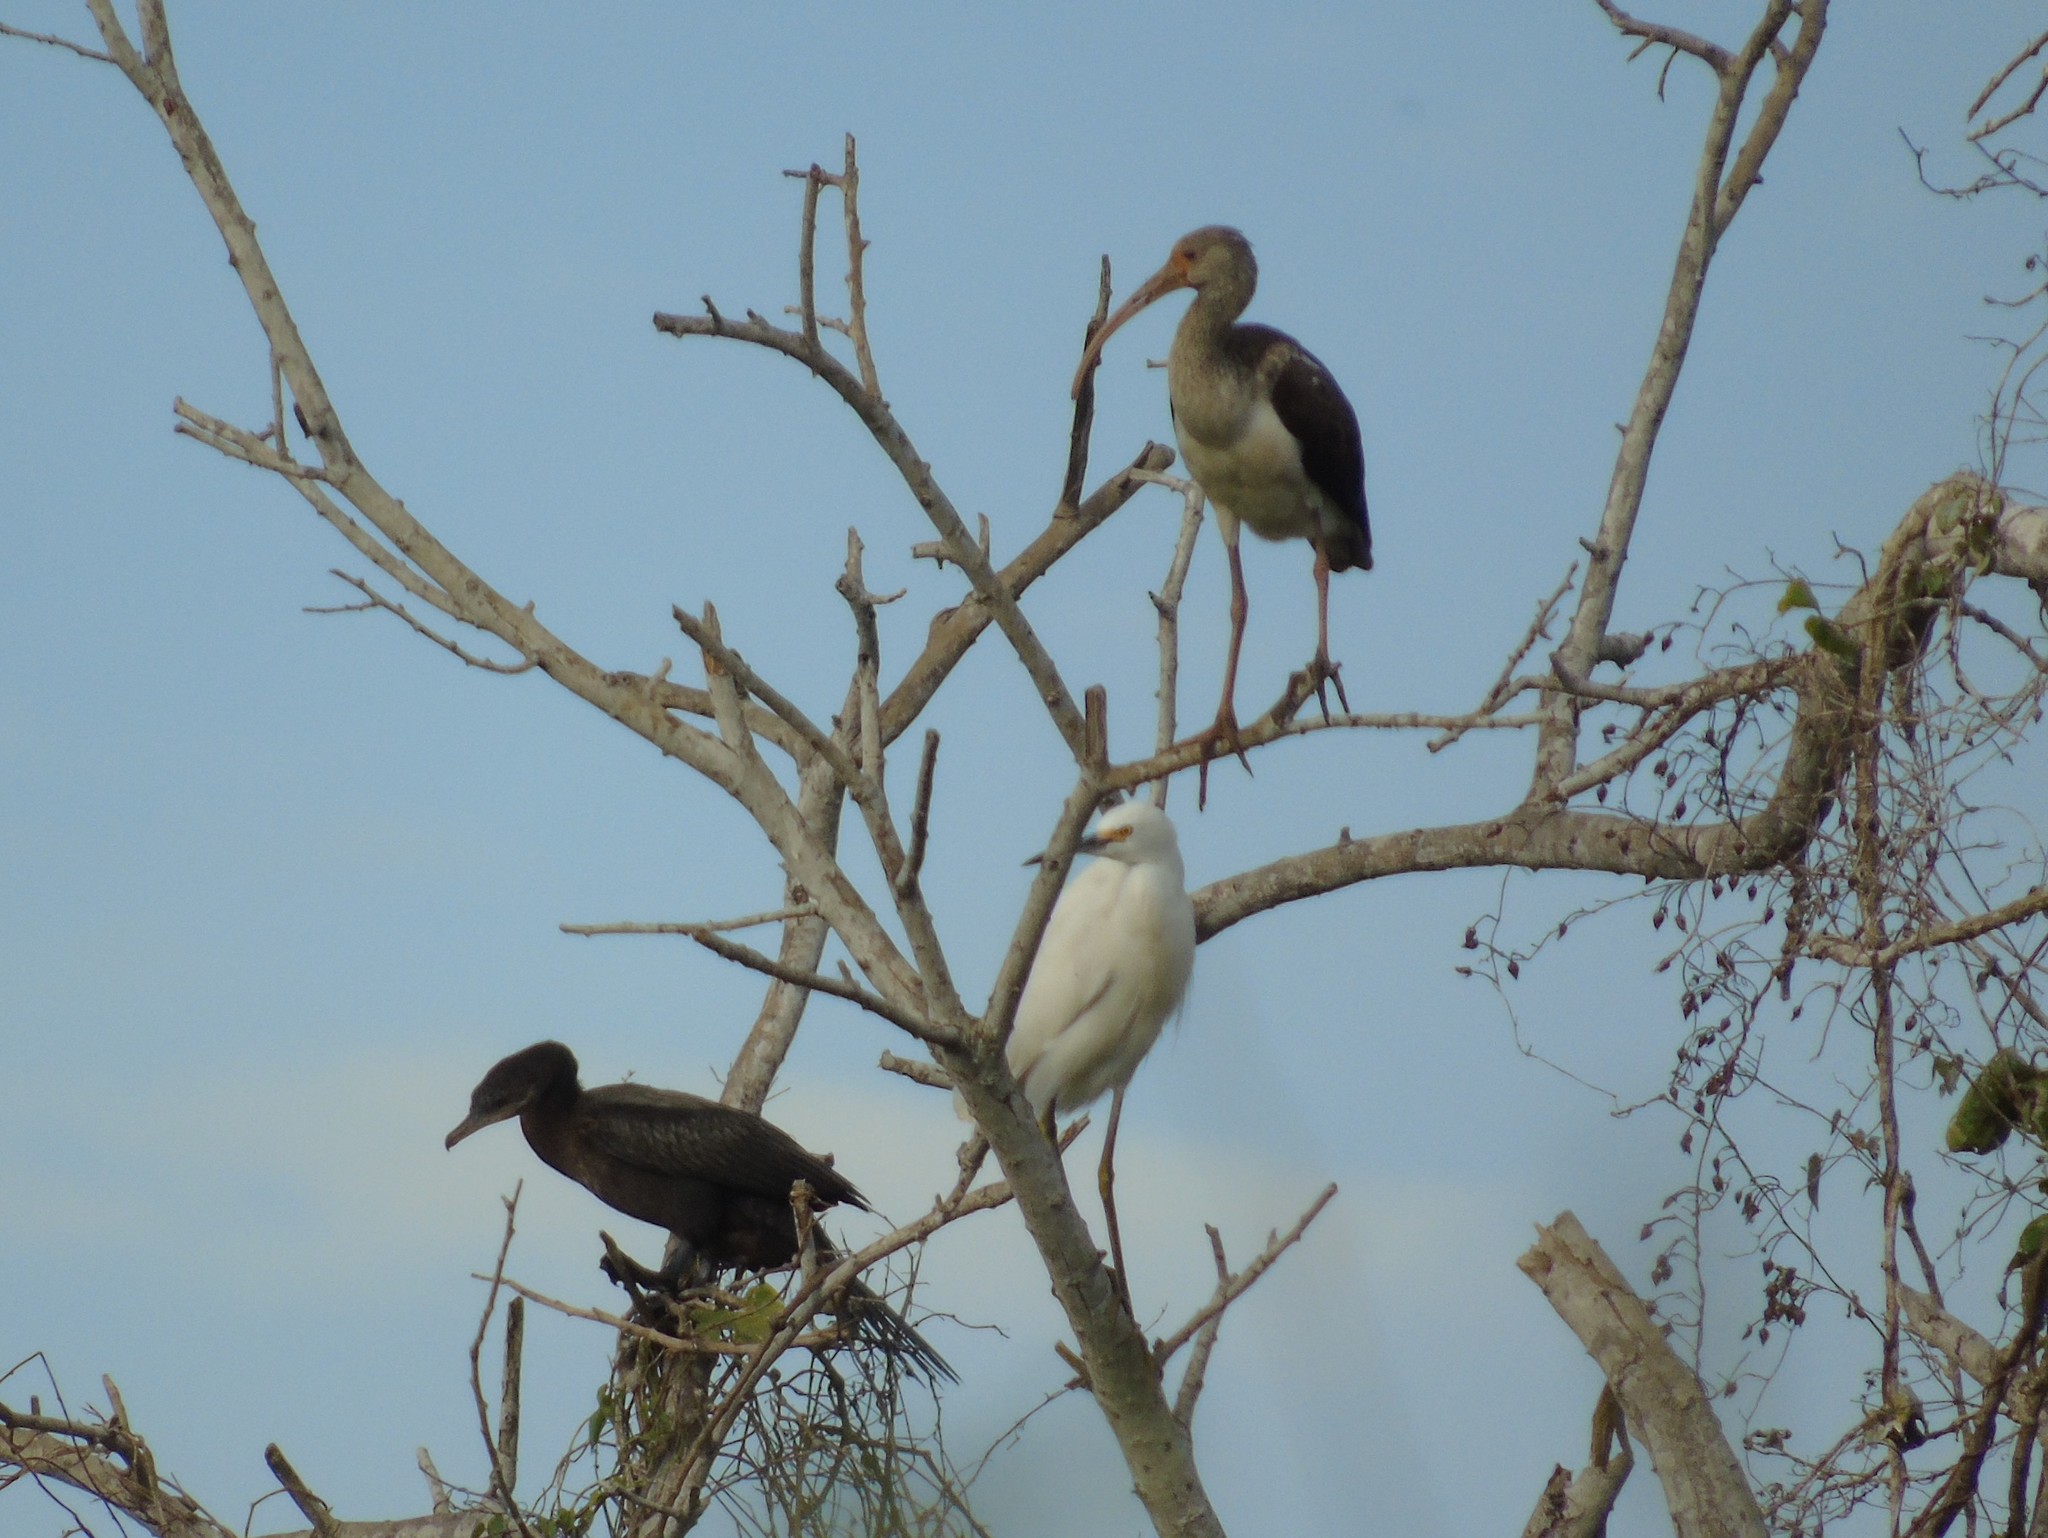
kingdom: Animalia
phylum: Chordata
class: Aves
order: Suliformes
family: Phalacrocoracidae
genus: Phalacrocorax
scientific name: Phalacrocorax brasilianus
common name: Neotropic cormorant
